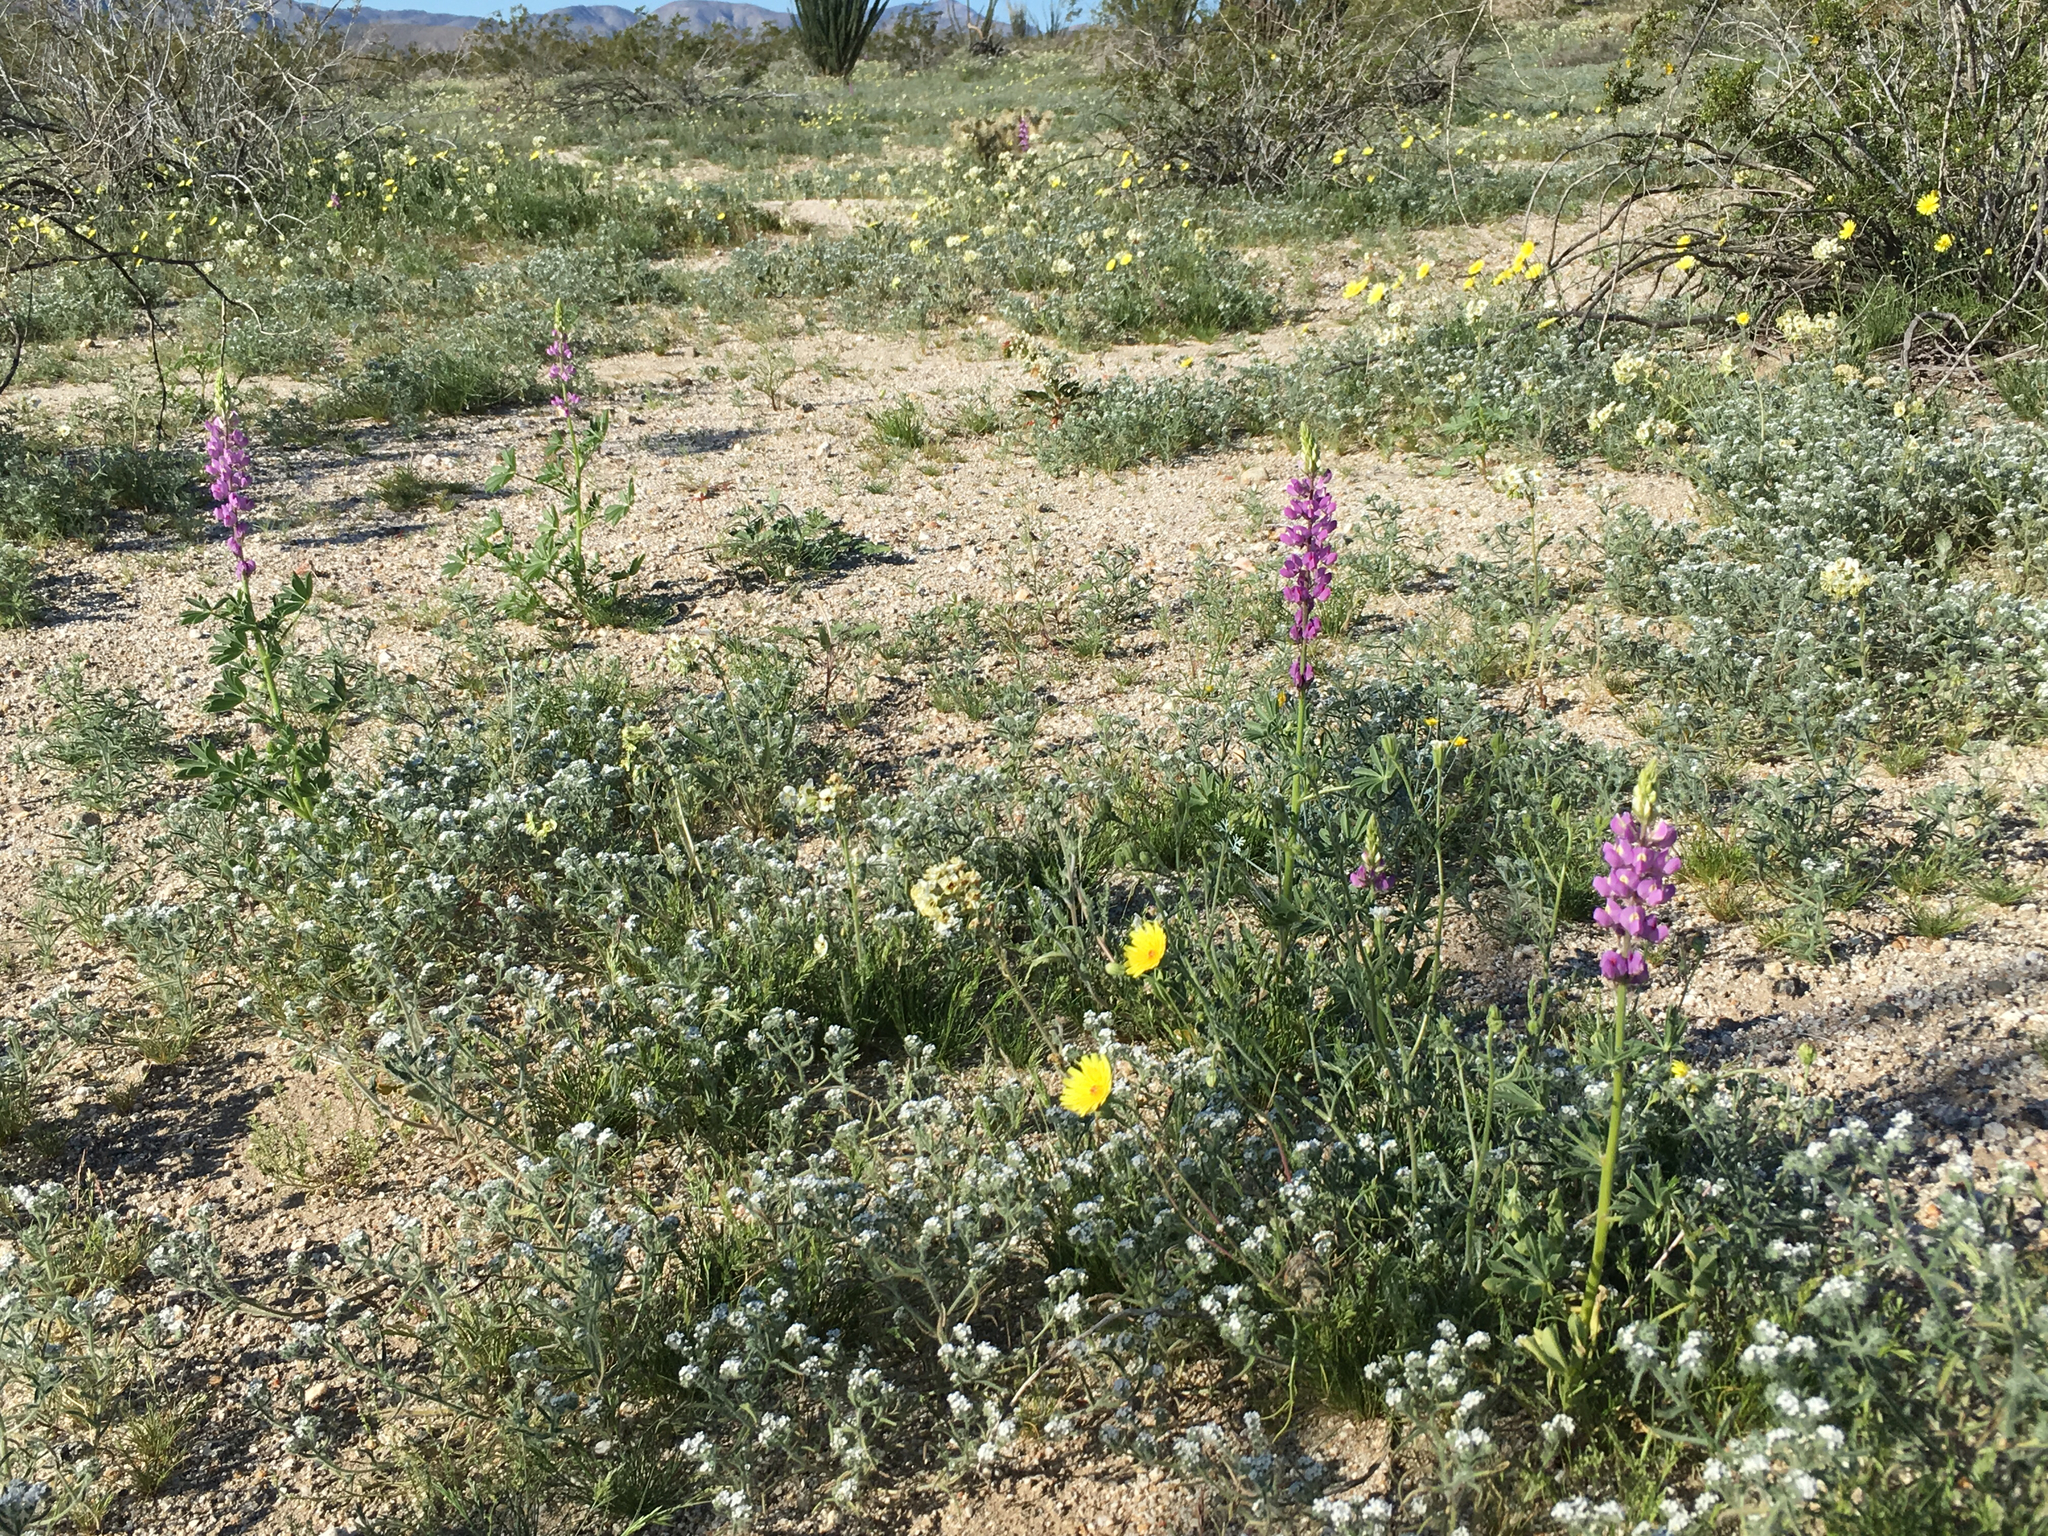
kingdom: Plantae
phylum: Tracheophyta
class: Magnoliopsida
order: Fabales
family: Fabaceae
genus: Lupinus
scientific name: Lupinus arizonicus
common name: Arizona lupine
